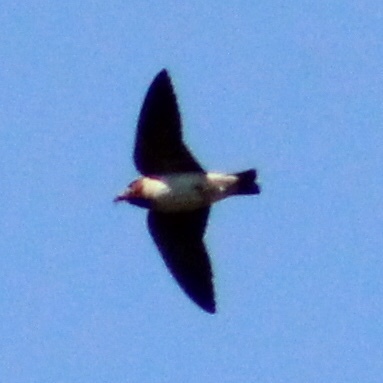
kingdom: Animalia
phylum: Chordata
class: Aves
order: Passeriformes
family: Hirundinidae
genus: Petrochelidon
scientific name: Petrochelidon pyrrhonota
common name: American cliff swallow
